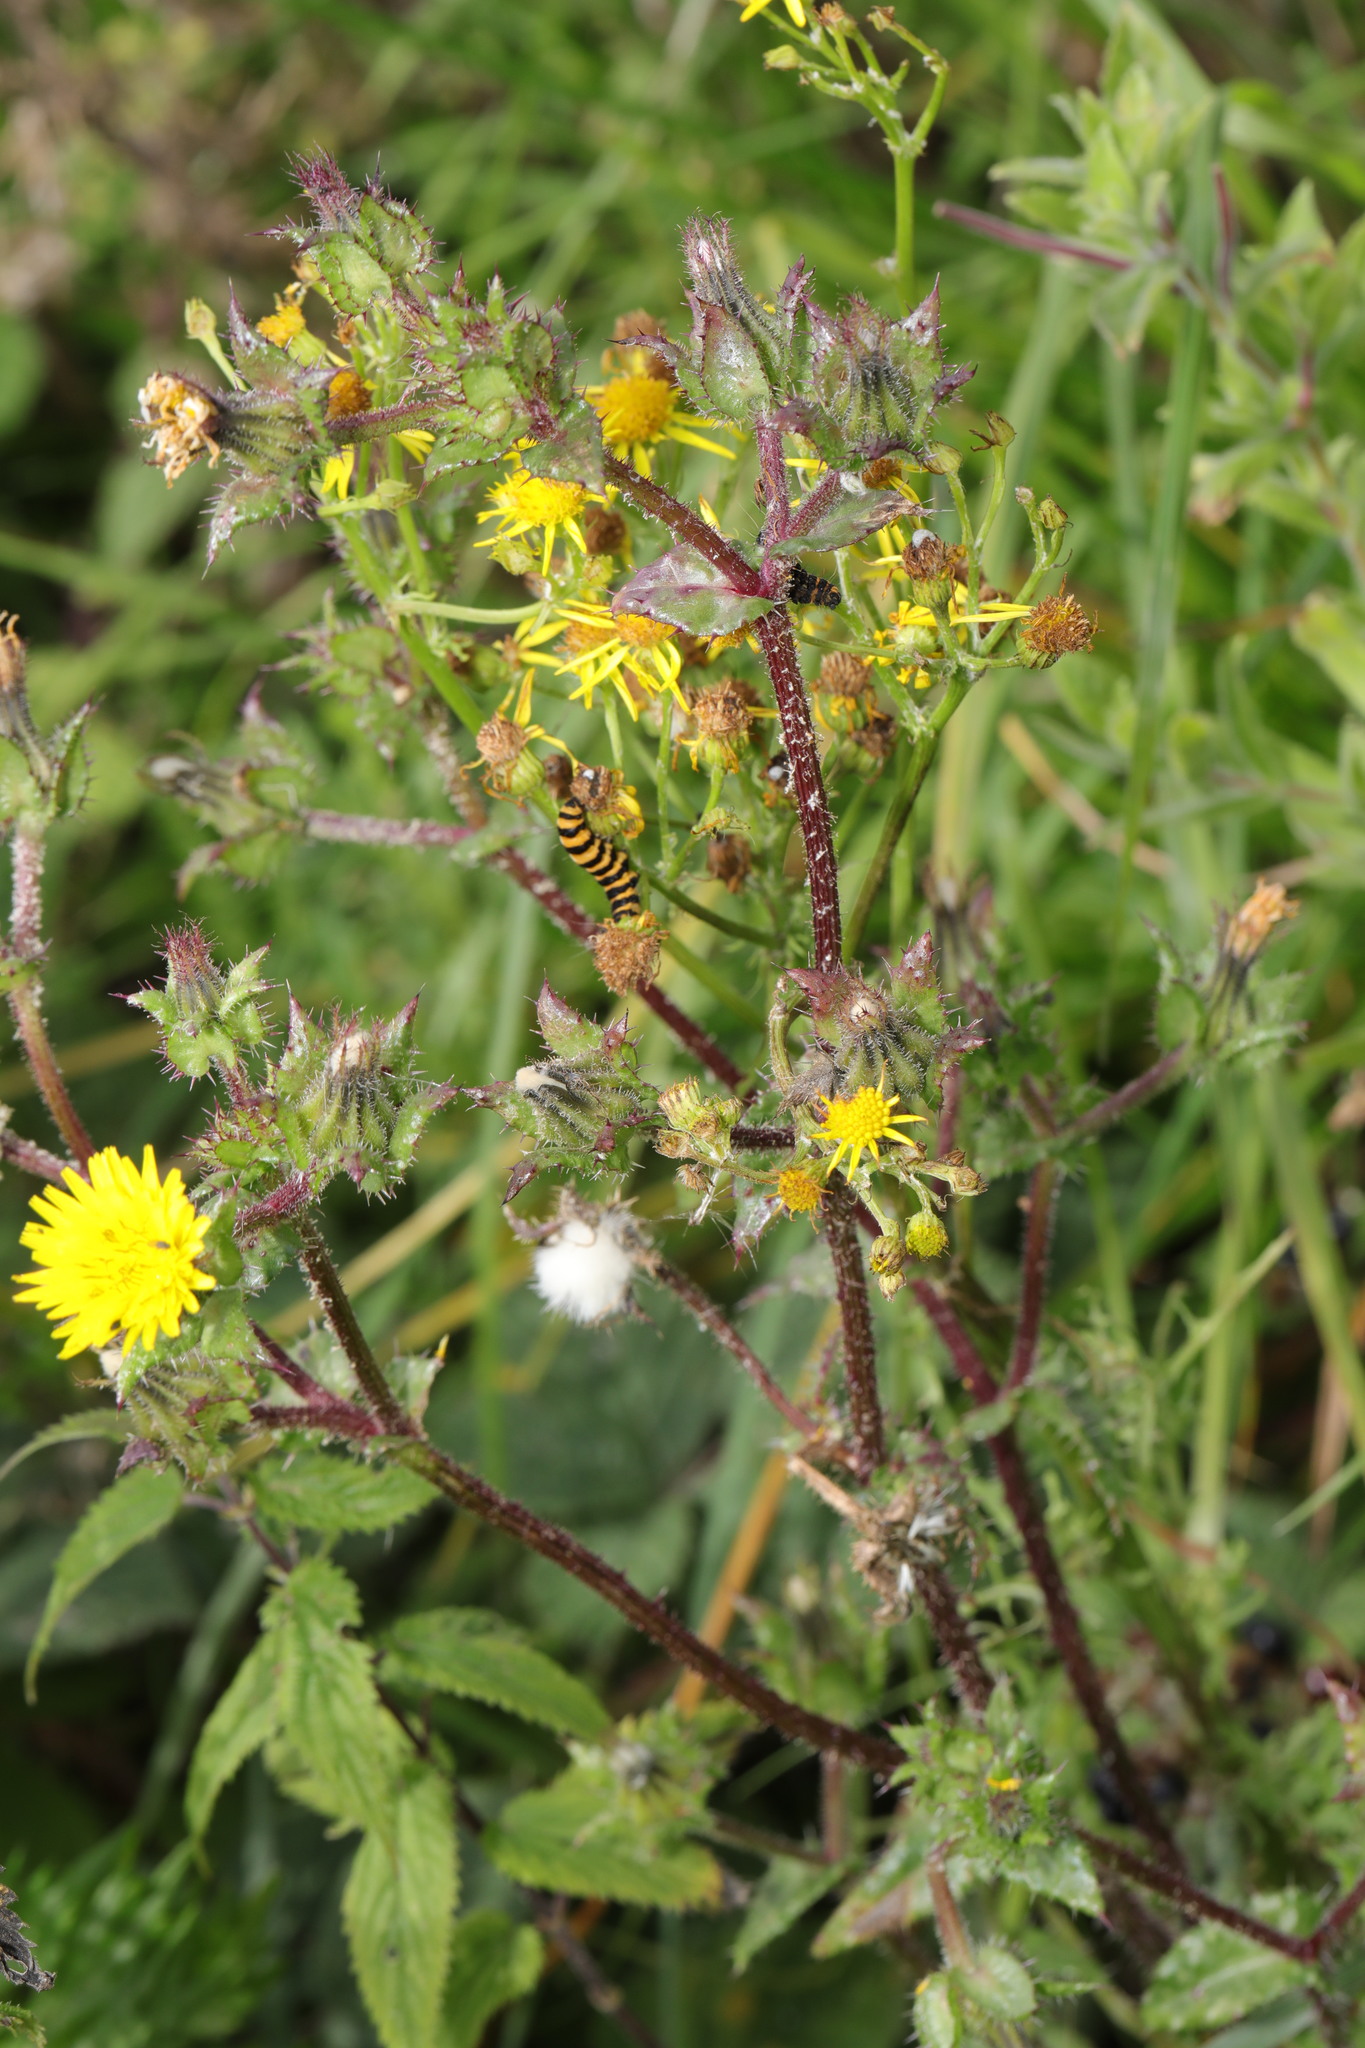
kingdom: Plantae
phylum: Tracheophyta
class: Magnoliopsida
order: Asterales
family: Asteraceae
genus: Helminthotheca
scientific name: Helminthotheca echioides
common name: Ox-tongue
